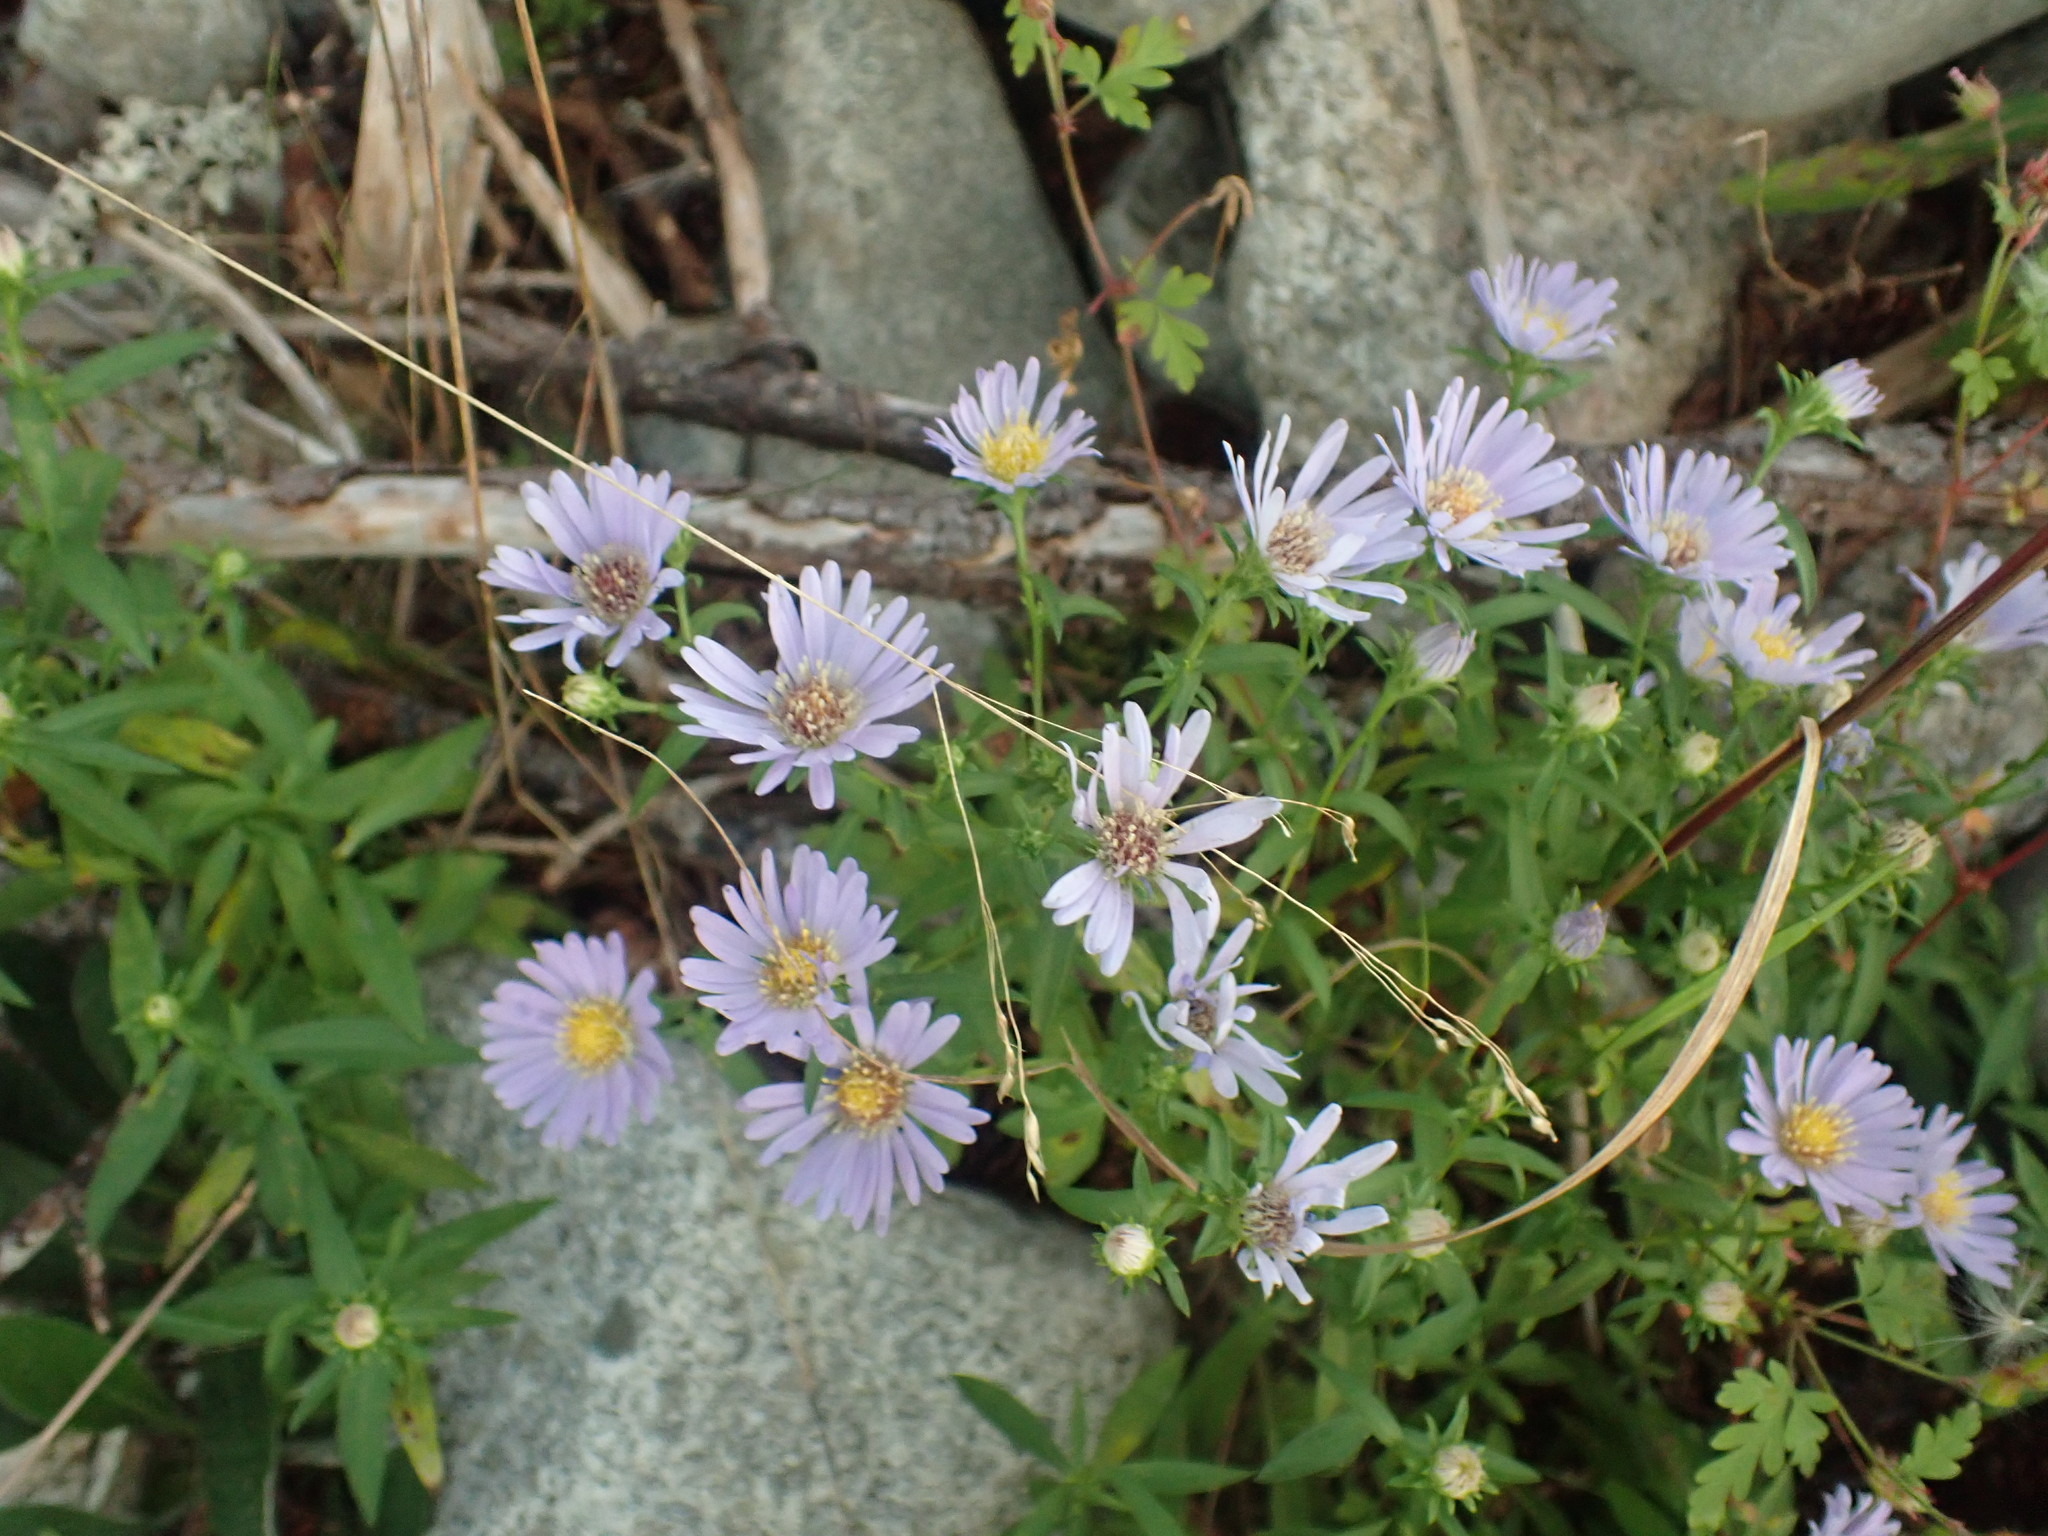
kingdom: Plantae
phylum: Tracheophyta
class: Magnoliopsida
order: Asterales
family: Asteraceae
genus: Symphyotrichum
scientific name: Symphyotrichum novi-belgii
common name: Michaelmas daisy
